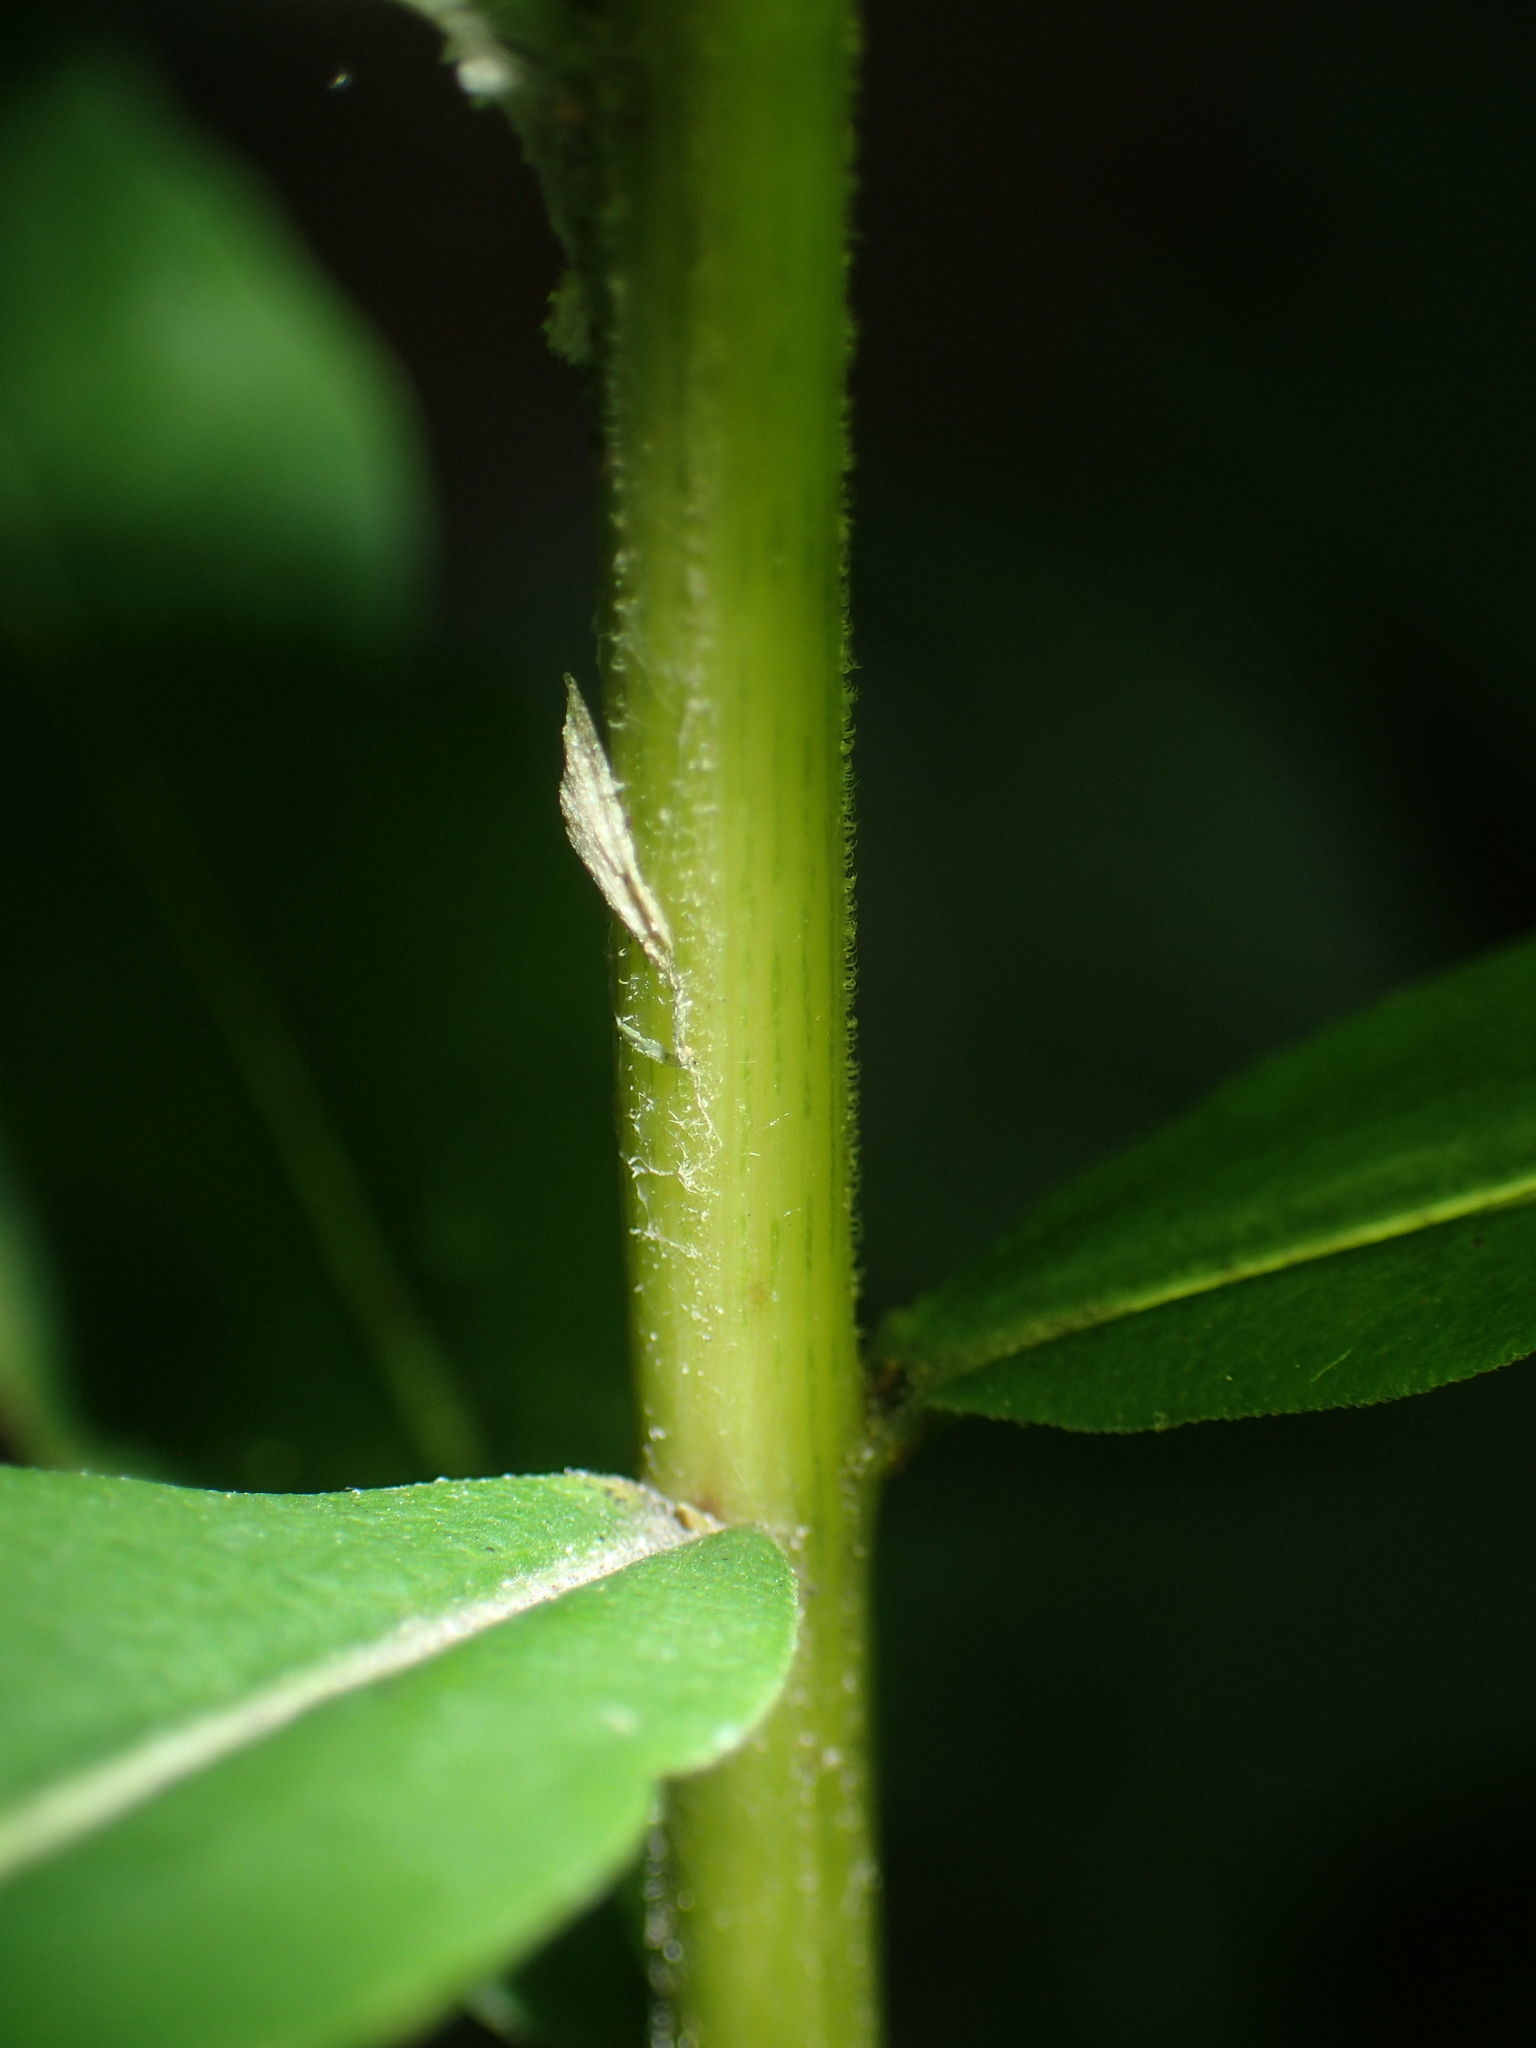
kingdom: Plantae
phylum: Tracheophyta
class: Magnoliopsida
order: Asterales
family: Asteraceae
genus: Solidago
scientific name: Solidago odora
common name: Anise-scented goldenrod
